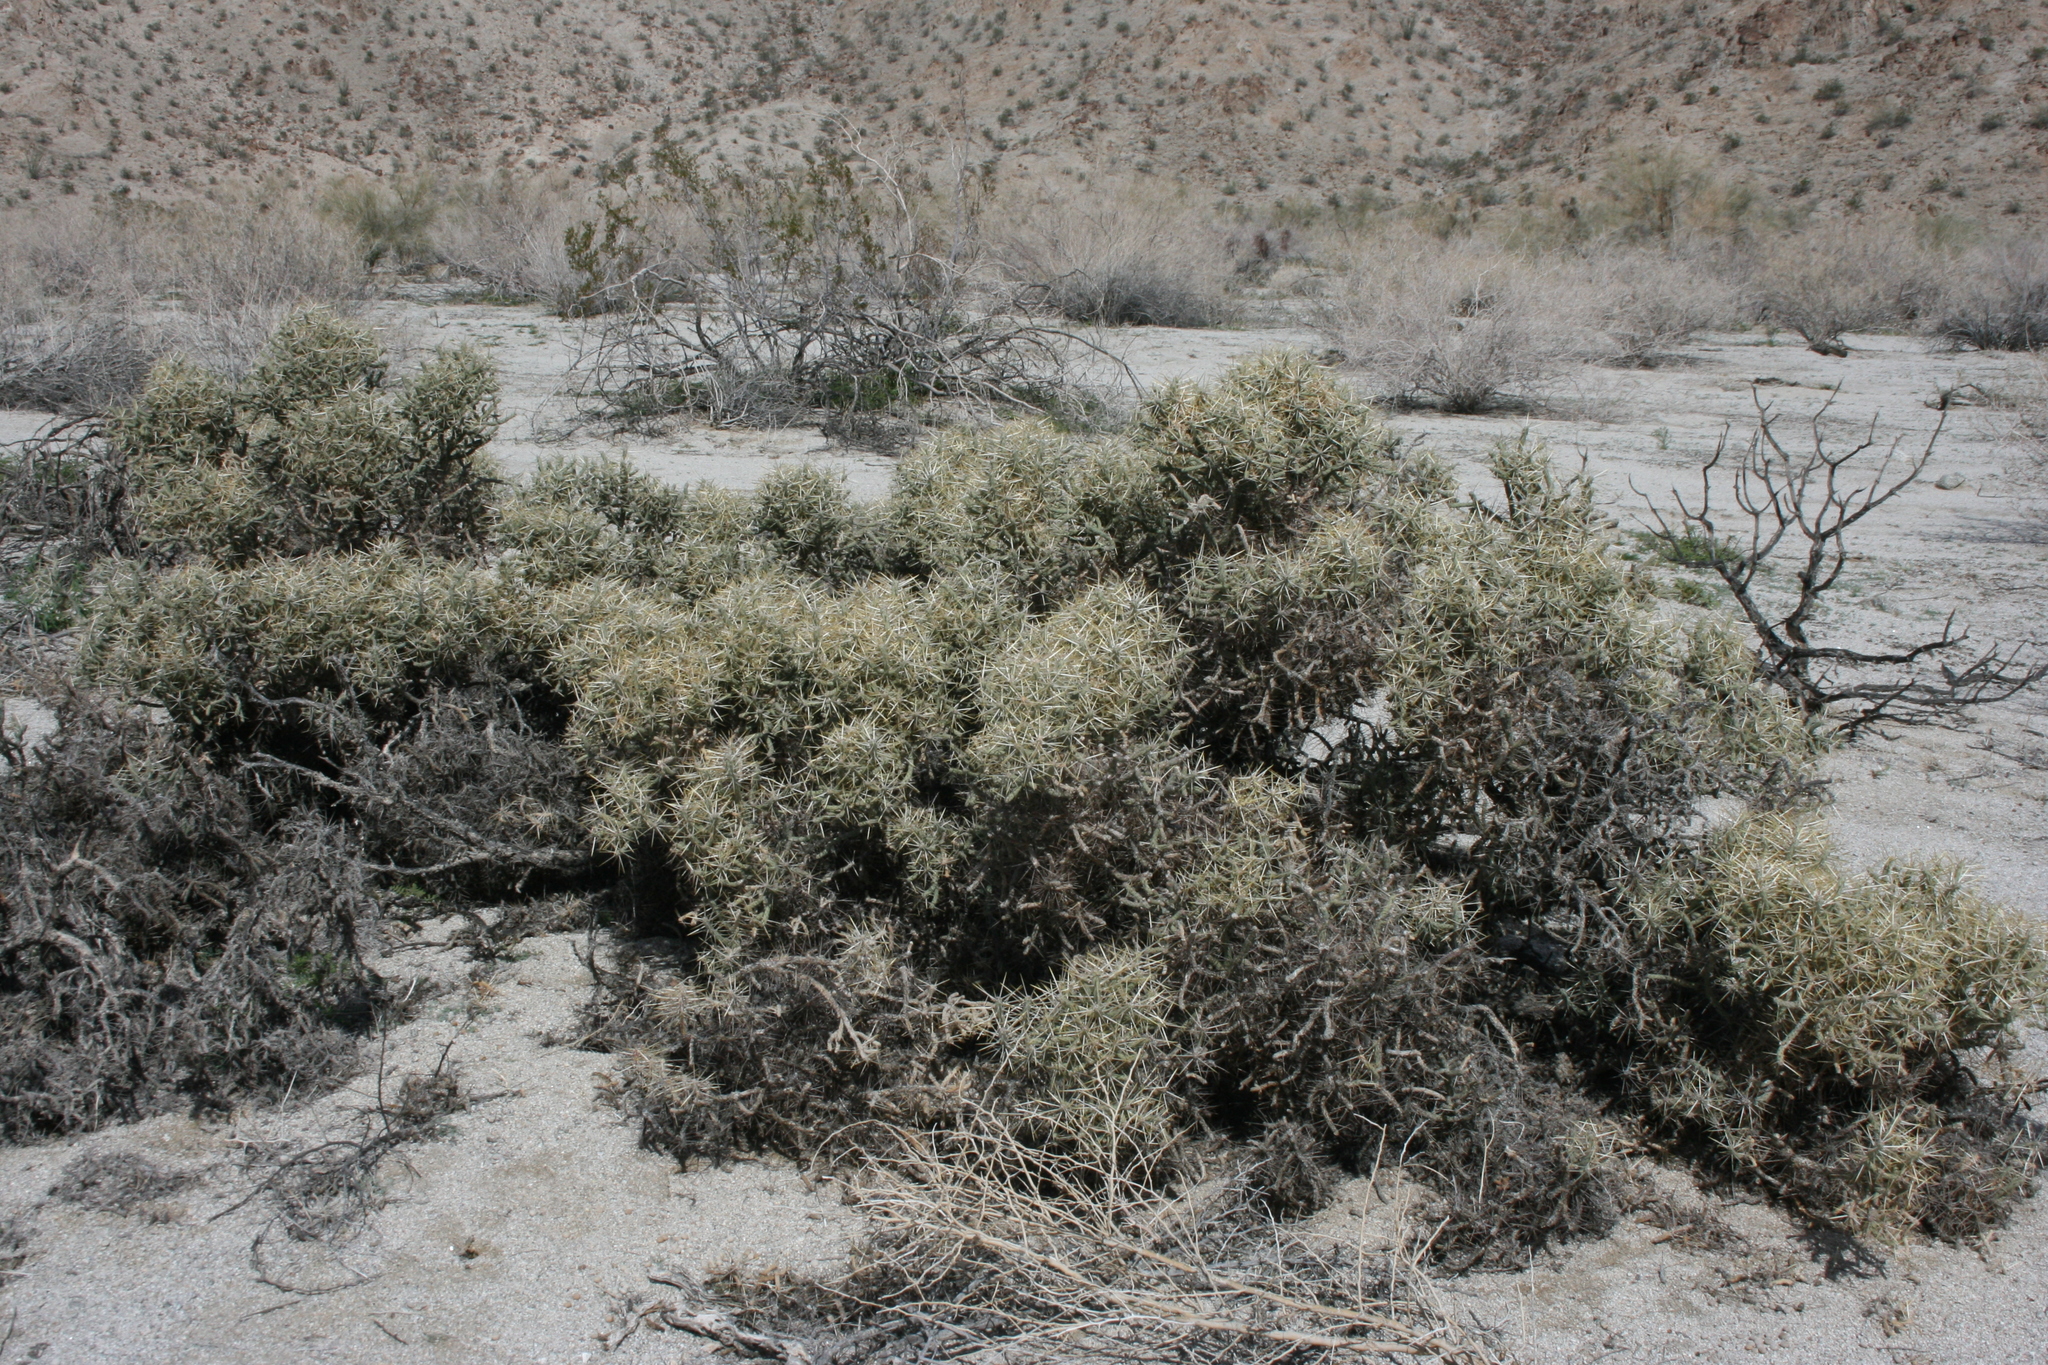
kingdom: Plantae
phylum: Tracheophyta
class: Magnoliopsida
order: Caryophyllales
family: Cactaceae
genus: Cylindropuntia
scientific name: Cylindropuntia ramosissima
